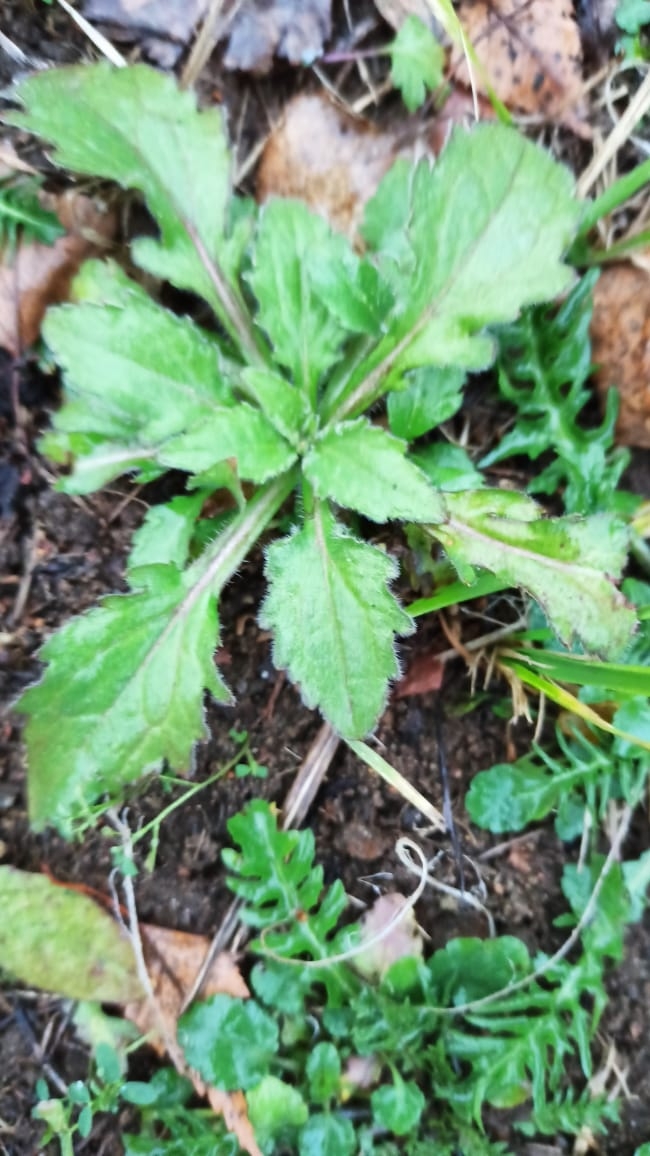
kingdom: Plantae
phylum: Tracheophyta
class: Magnoliopsida
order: Asterales
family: Asteraceae
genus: Erigeron
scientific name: Erigeron annuus
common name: Tall fleabane
